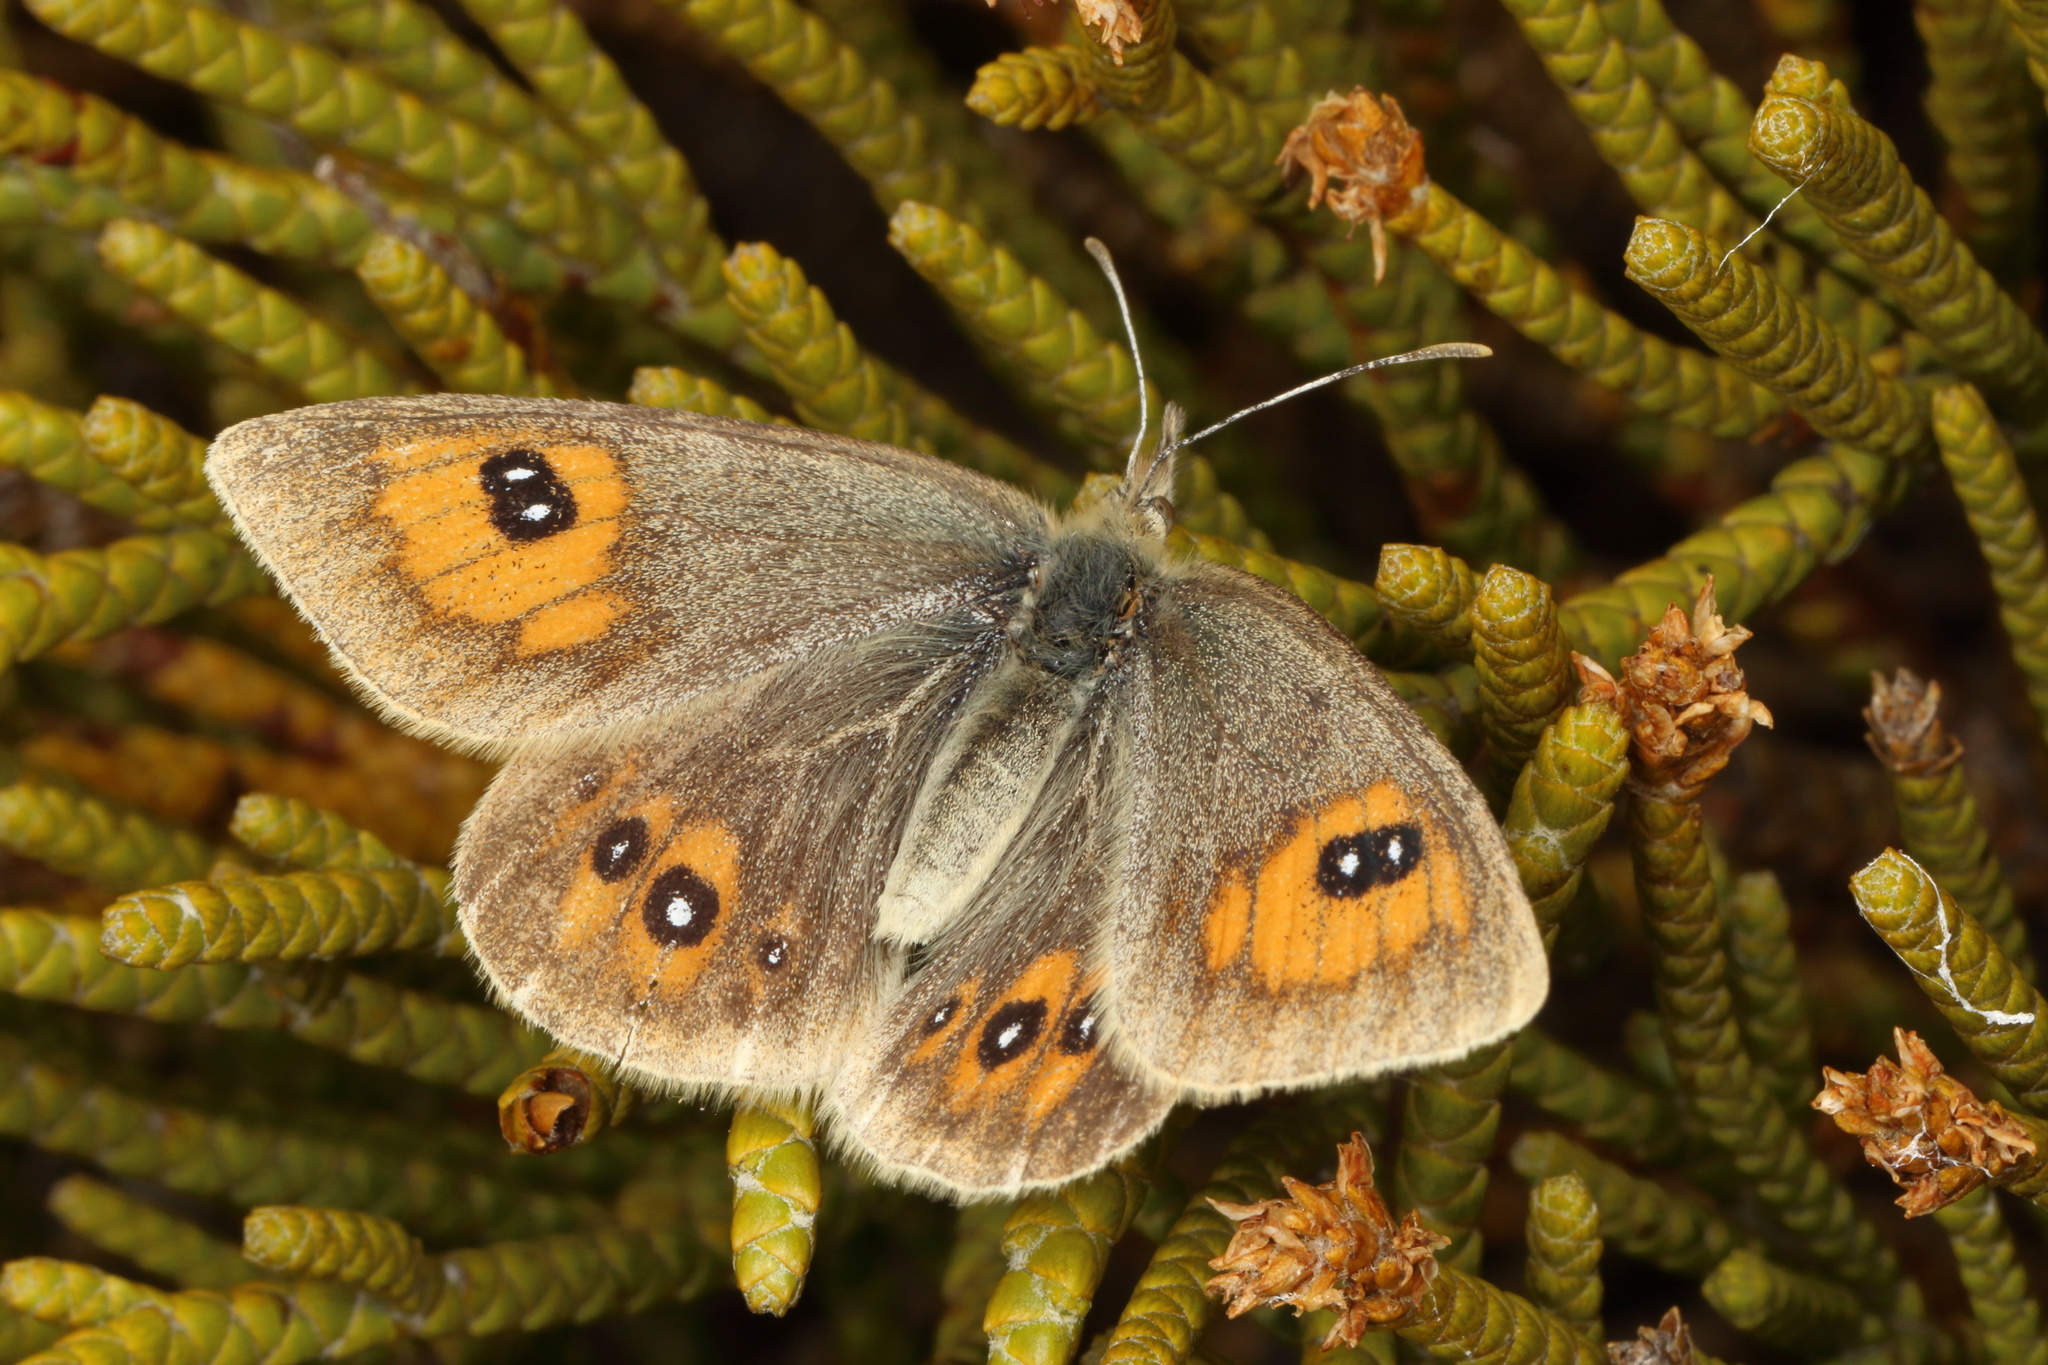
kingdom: Animalia
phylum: Arthropoda
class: Insecta
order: Lepidoptera
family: Nymphalidae
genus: Argyrophenga
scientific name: Argyrophenga janitae
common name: Janita's tussock
